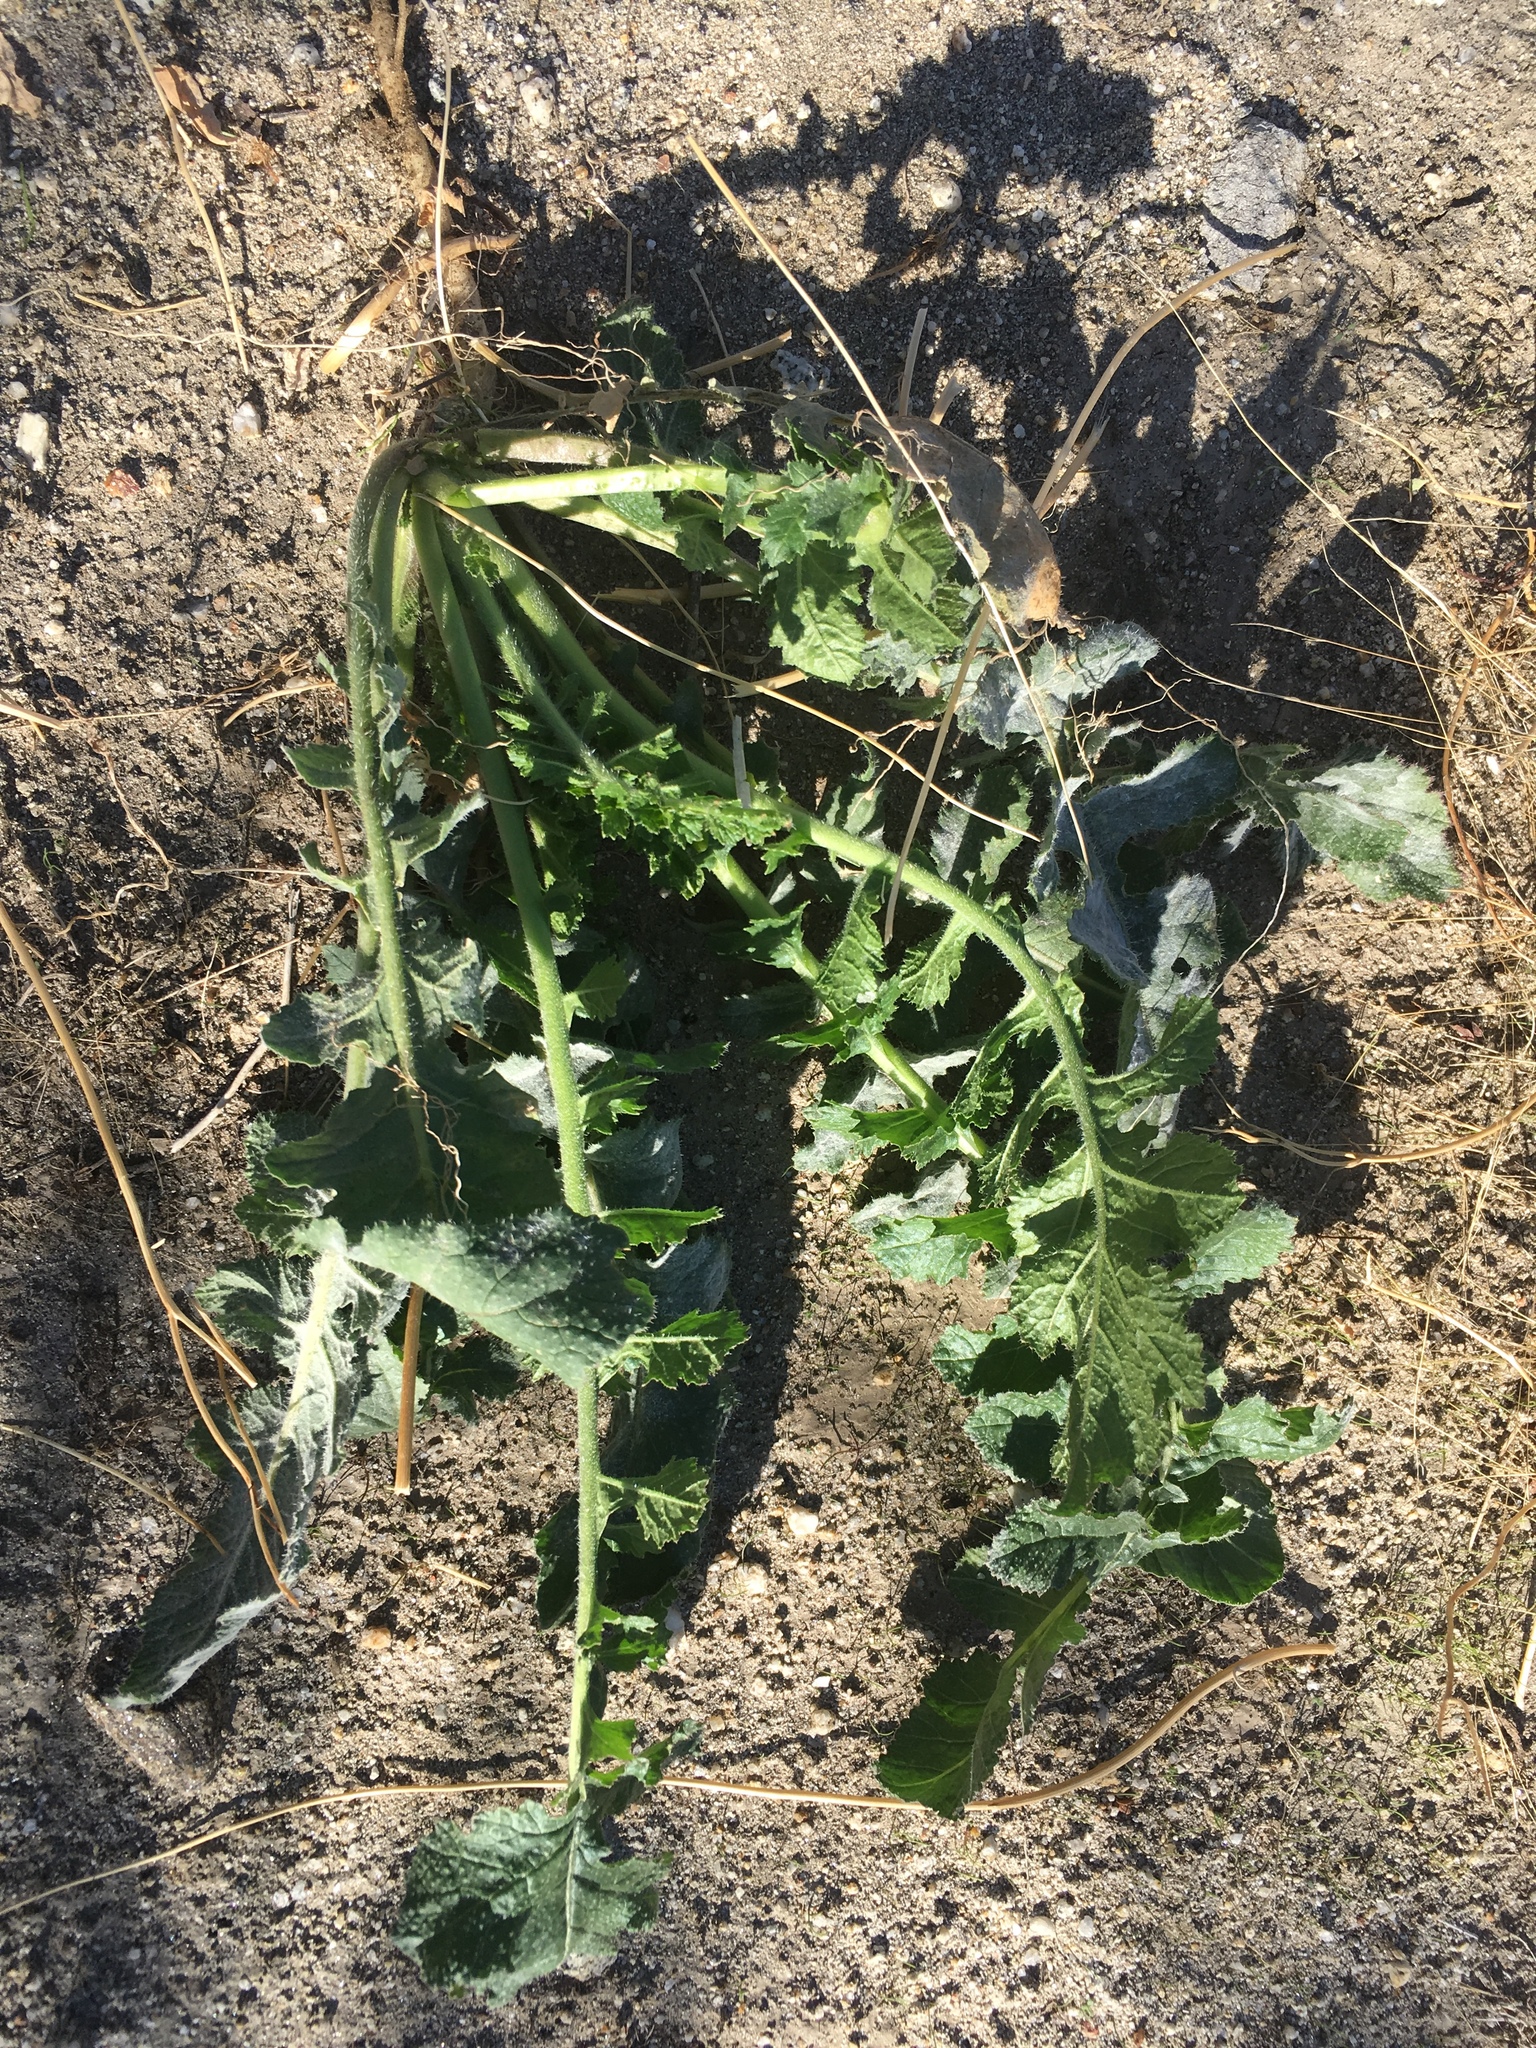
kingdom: Plantae
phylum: Tracheophyta
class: Magnoliopsida
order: Brassicales
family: Brassicaceae
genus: Brassica
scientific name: Brassica tournefortii
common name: Pale cabbage
